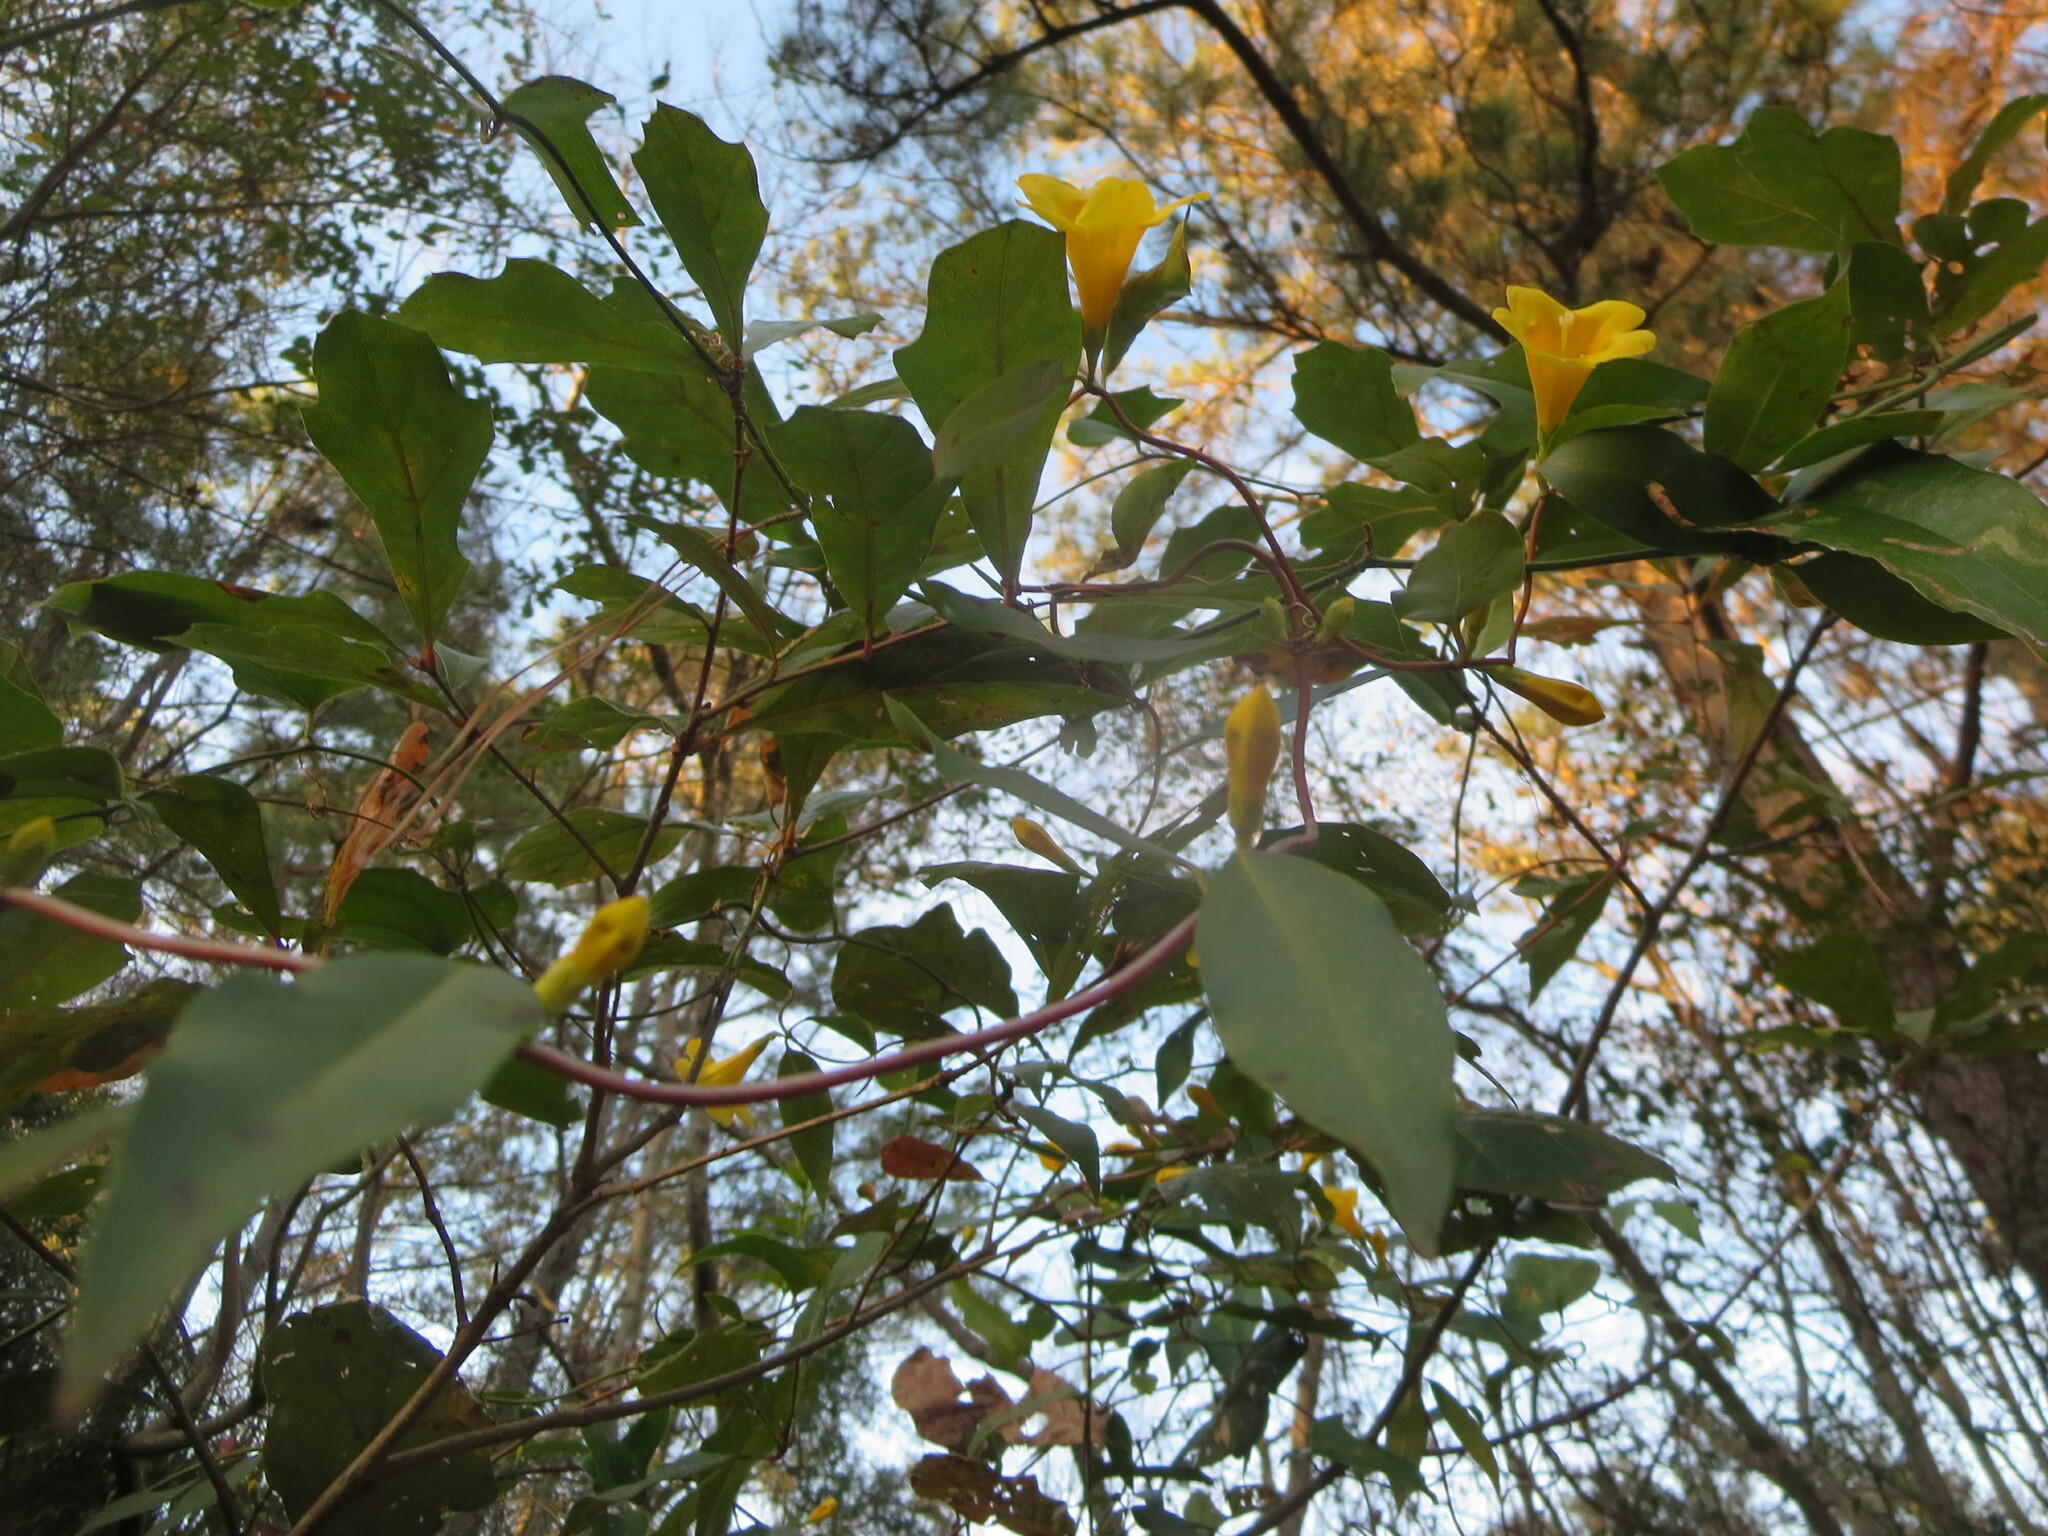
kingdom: Plantae
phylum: Tracheophyta
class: Magnoliopsida
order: Gentianales
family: Gelsemiaceae
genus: Gelsemium
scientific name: Gelsemium sempervirens
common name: Carolina-jasmine
